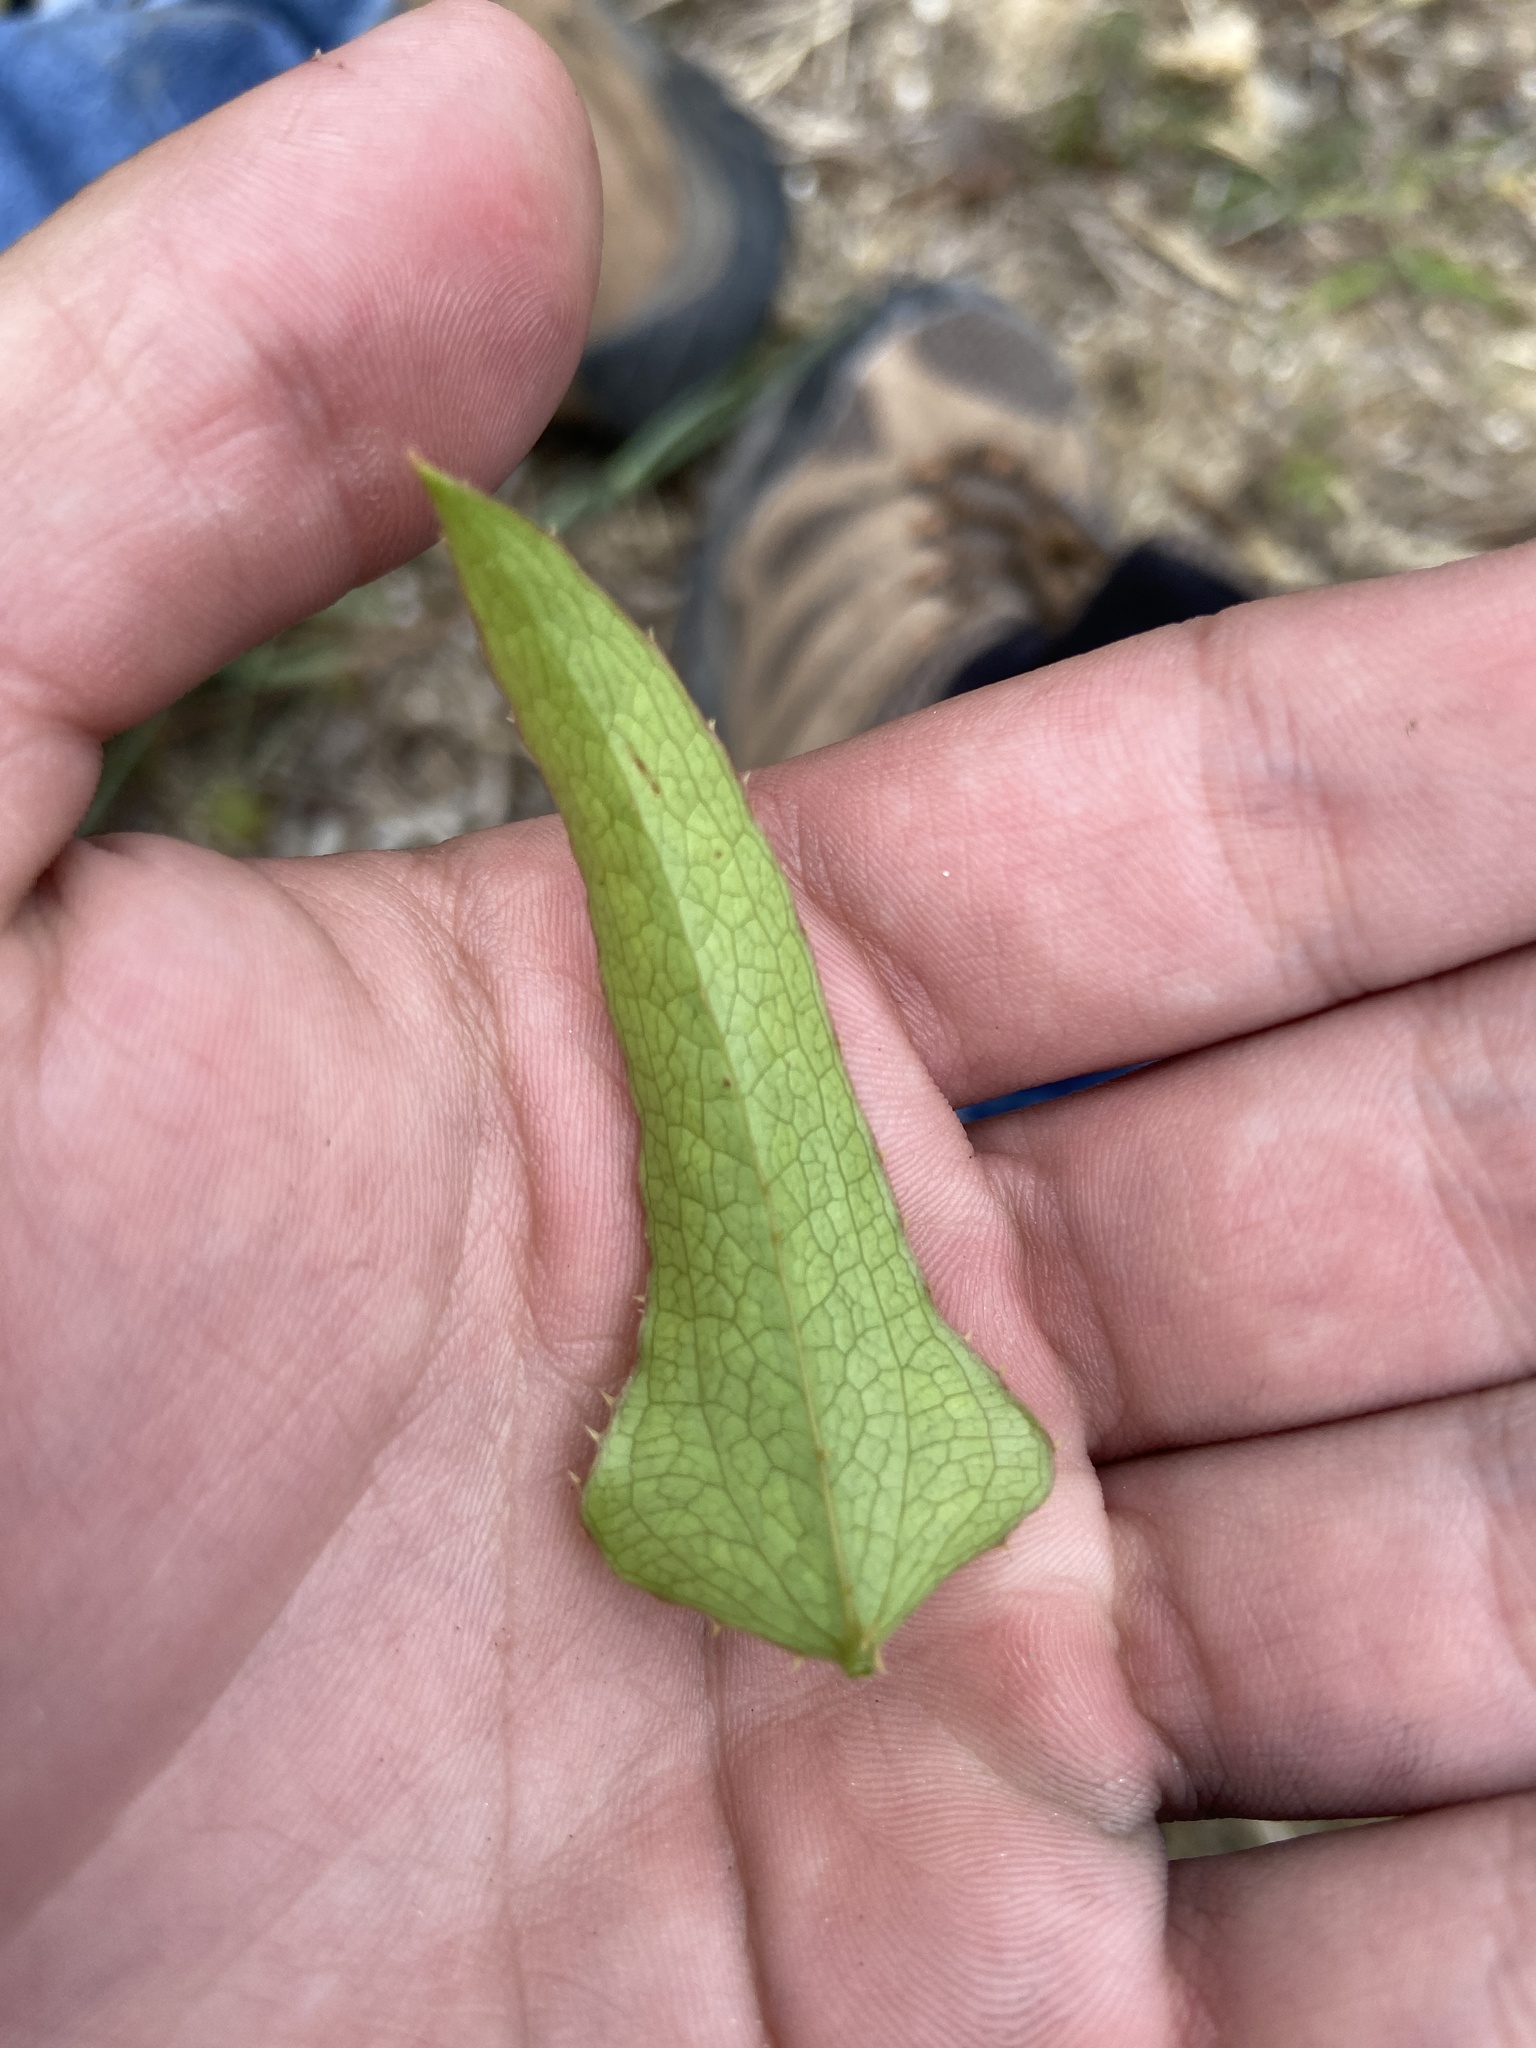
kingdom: Plantae
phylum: Tracheophyta
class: Liliopsida
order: Liliales
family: Smilacaceae
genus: Smilax
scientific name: Smilax bona-nox
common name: Catbrier
